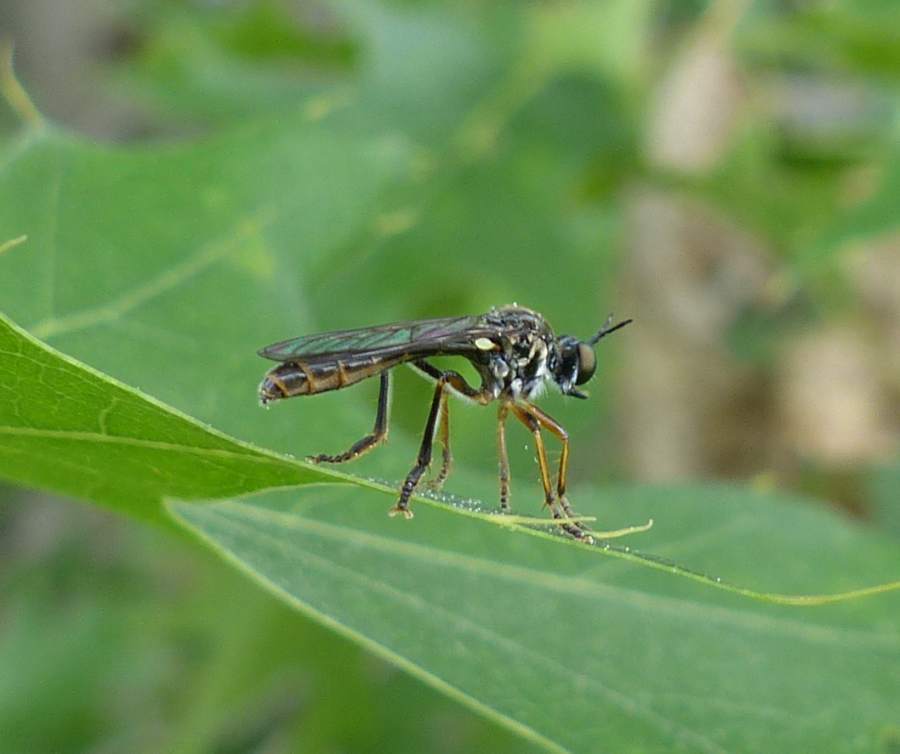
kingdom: Animalia
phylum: Arthropoda
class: Insecta
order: Diptera
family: Asilidae
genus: Dioctria
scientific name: Dioctria hyalipennis
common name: Stripe-legged robberfly
